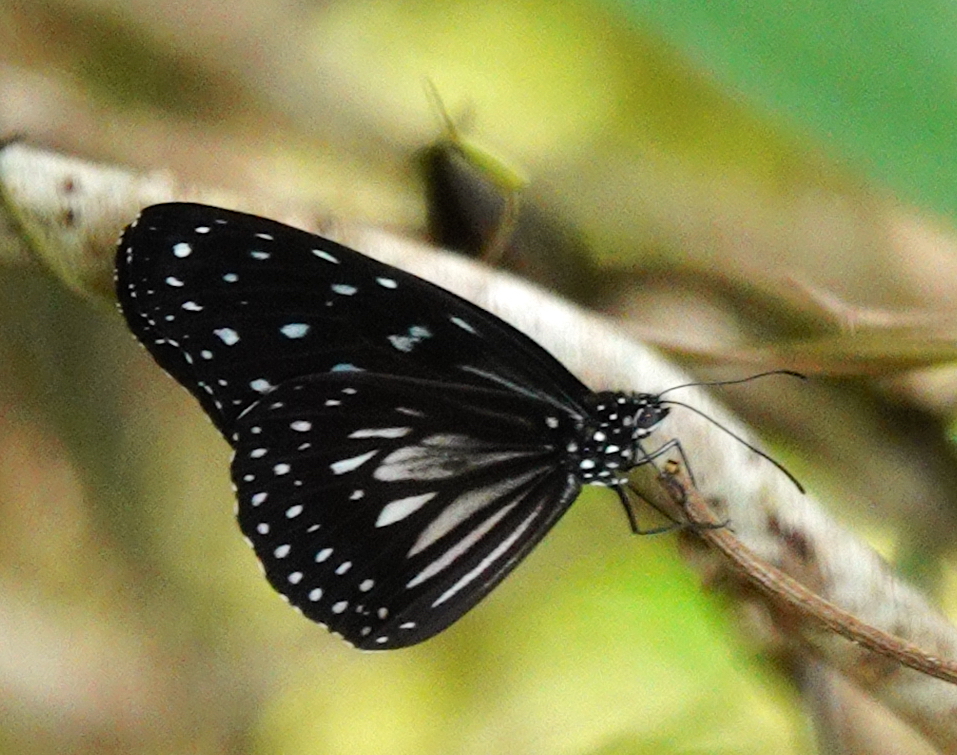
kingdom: Animalia
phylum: Arthropoda
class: Insecta
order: Lepidoptera
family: Nymphalidae
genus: Ideopsis
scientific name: Ideopsis juventa
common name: Grey glassy tiger
